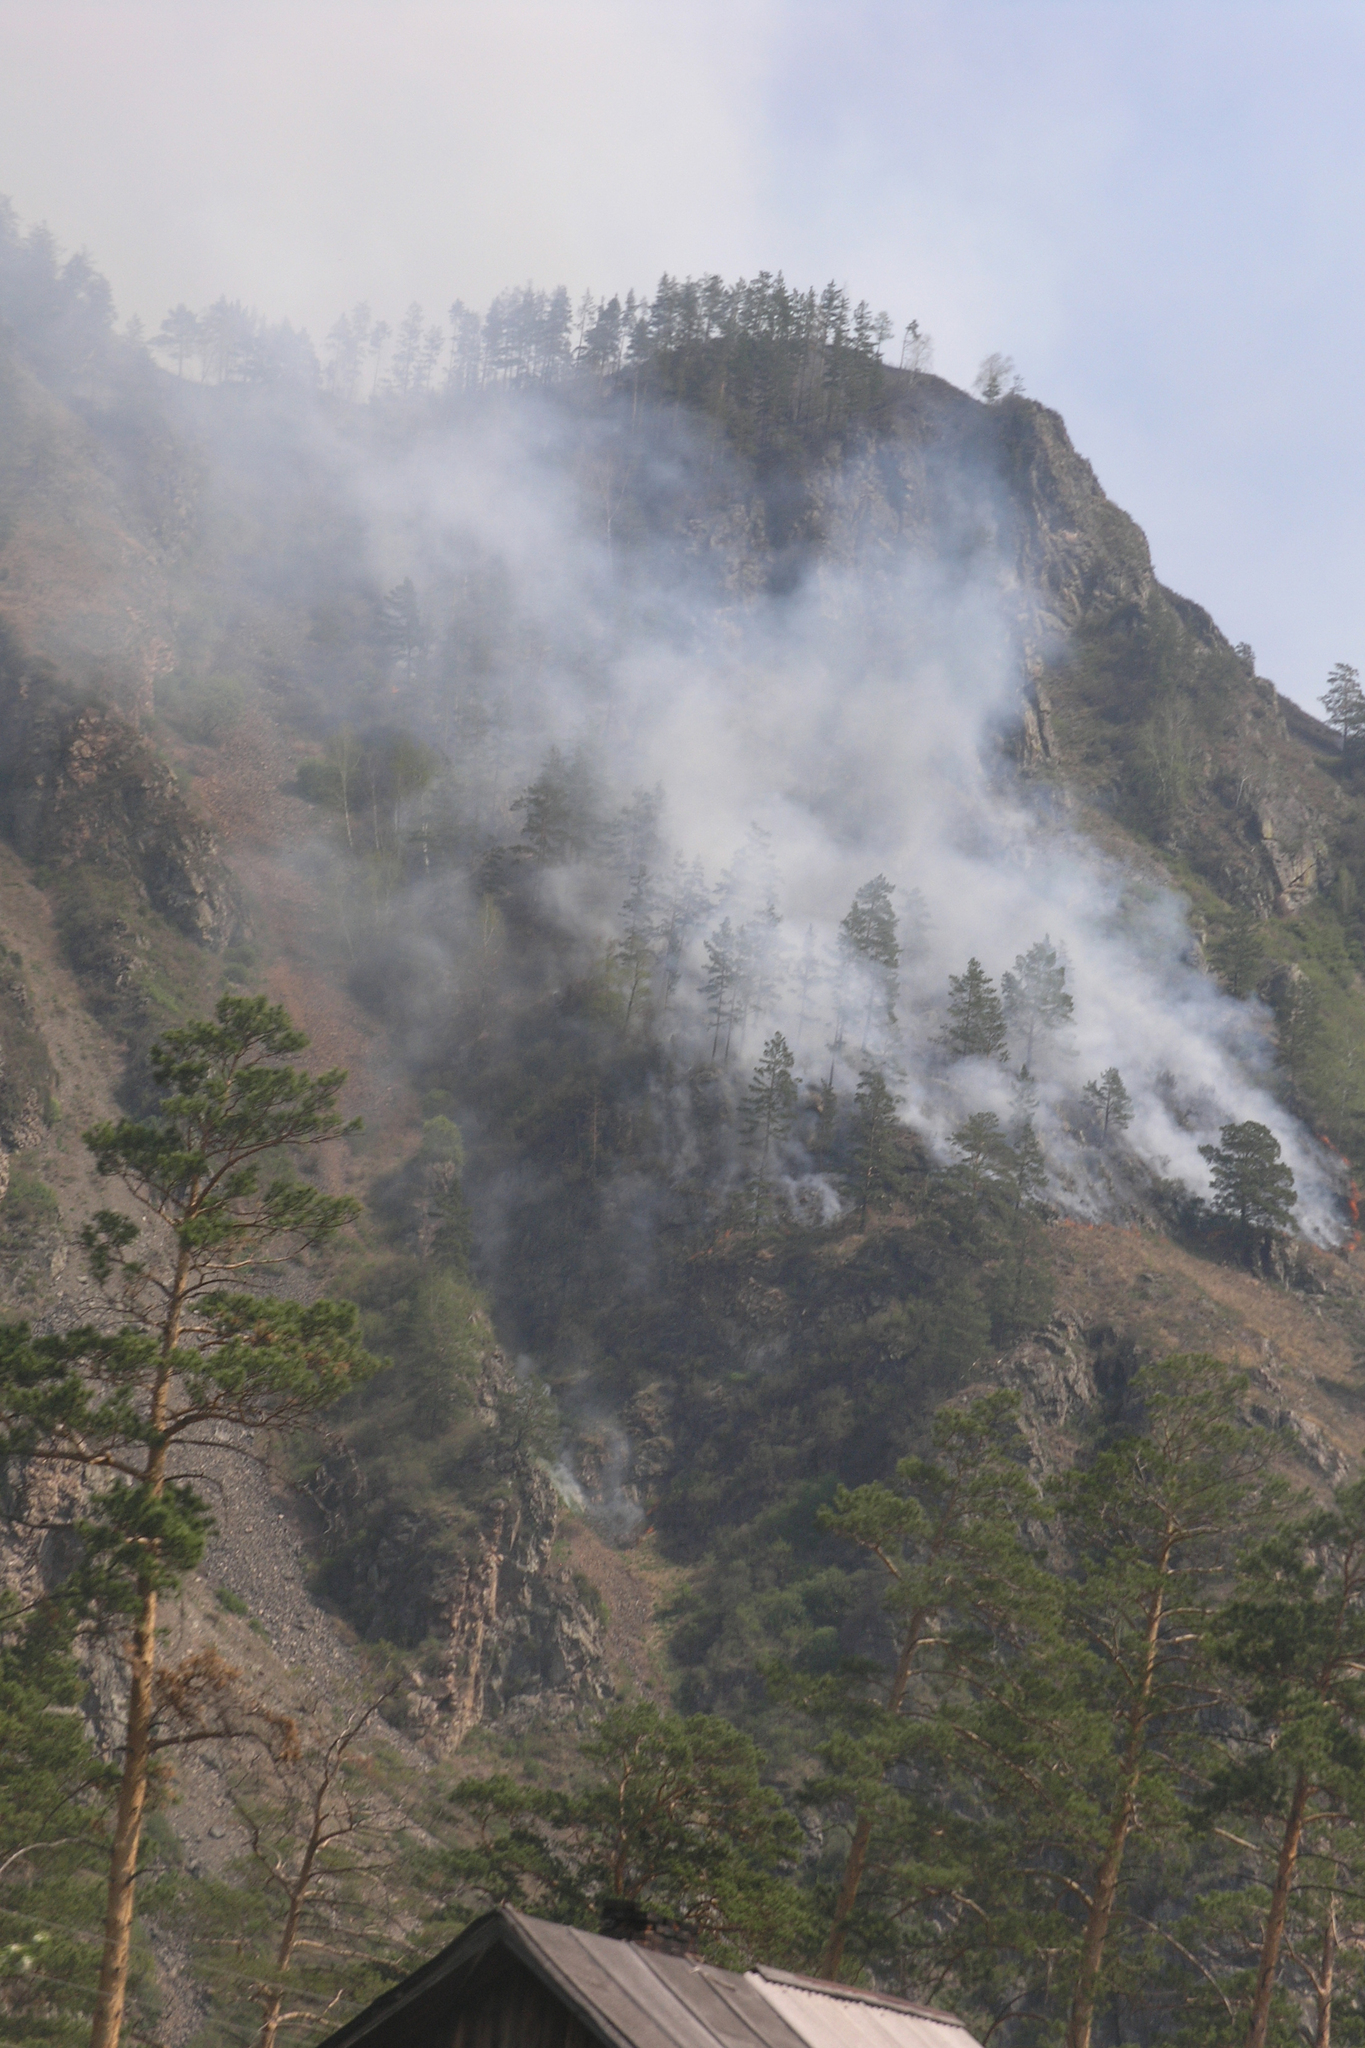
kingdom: Plantae
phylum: Tracheophyta
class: Pinopsida
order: Pinales
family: Pinaceae
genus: Pinus
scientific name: Pinus sylvestris
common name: Scots pine
